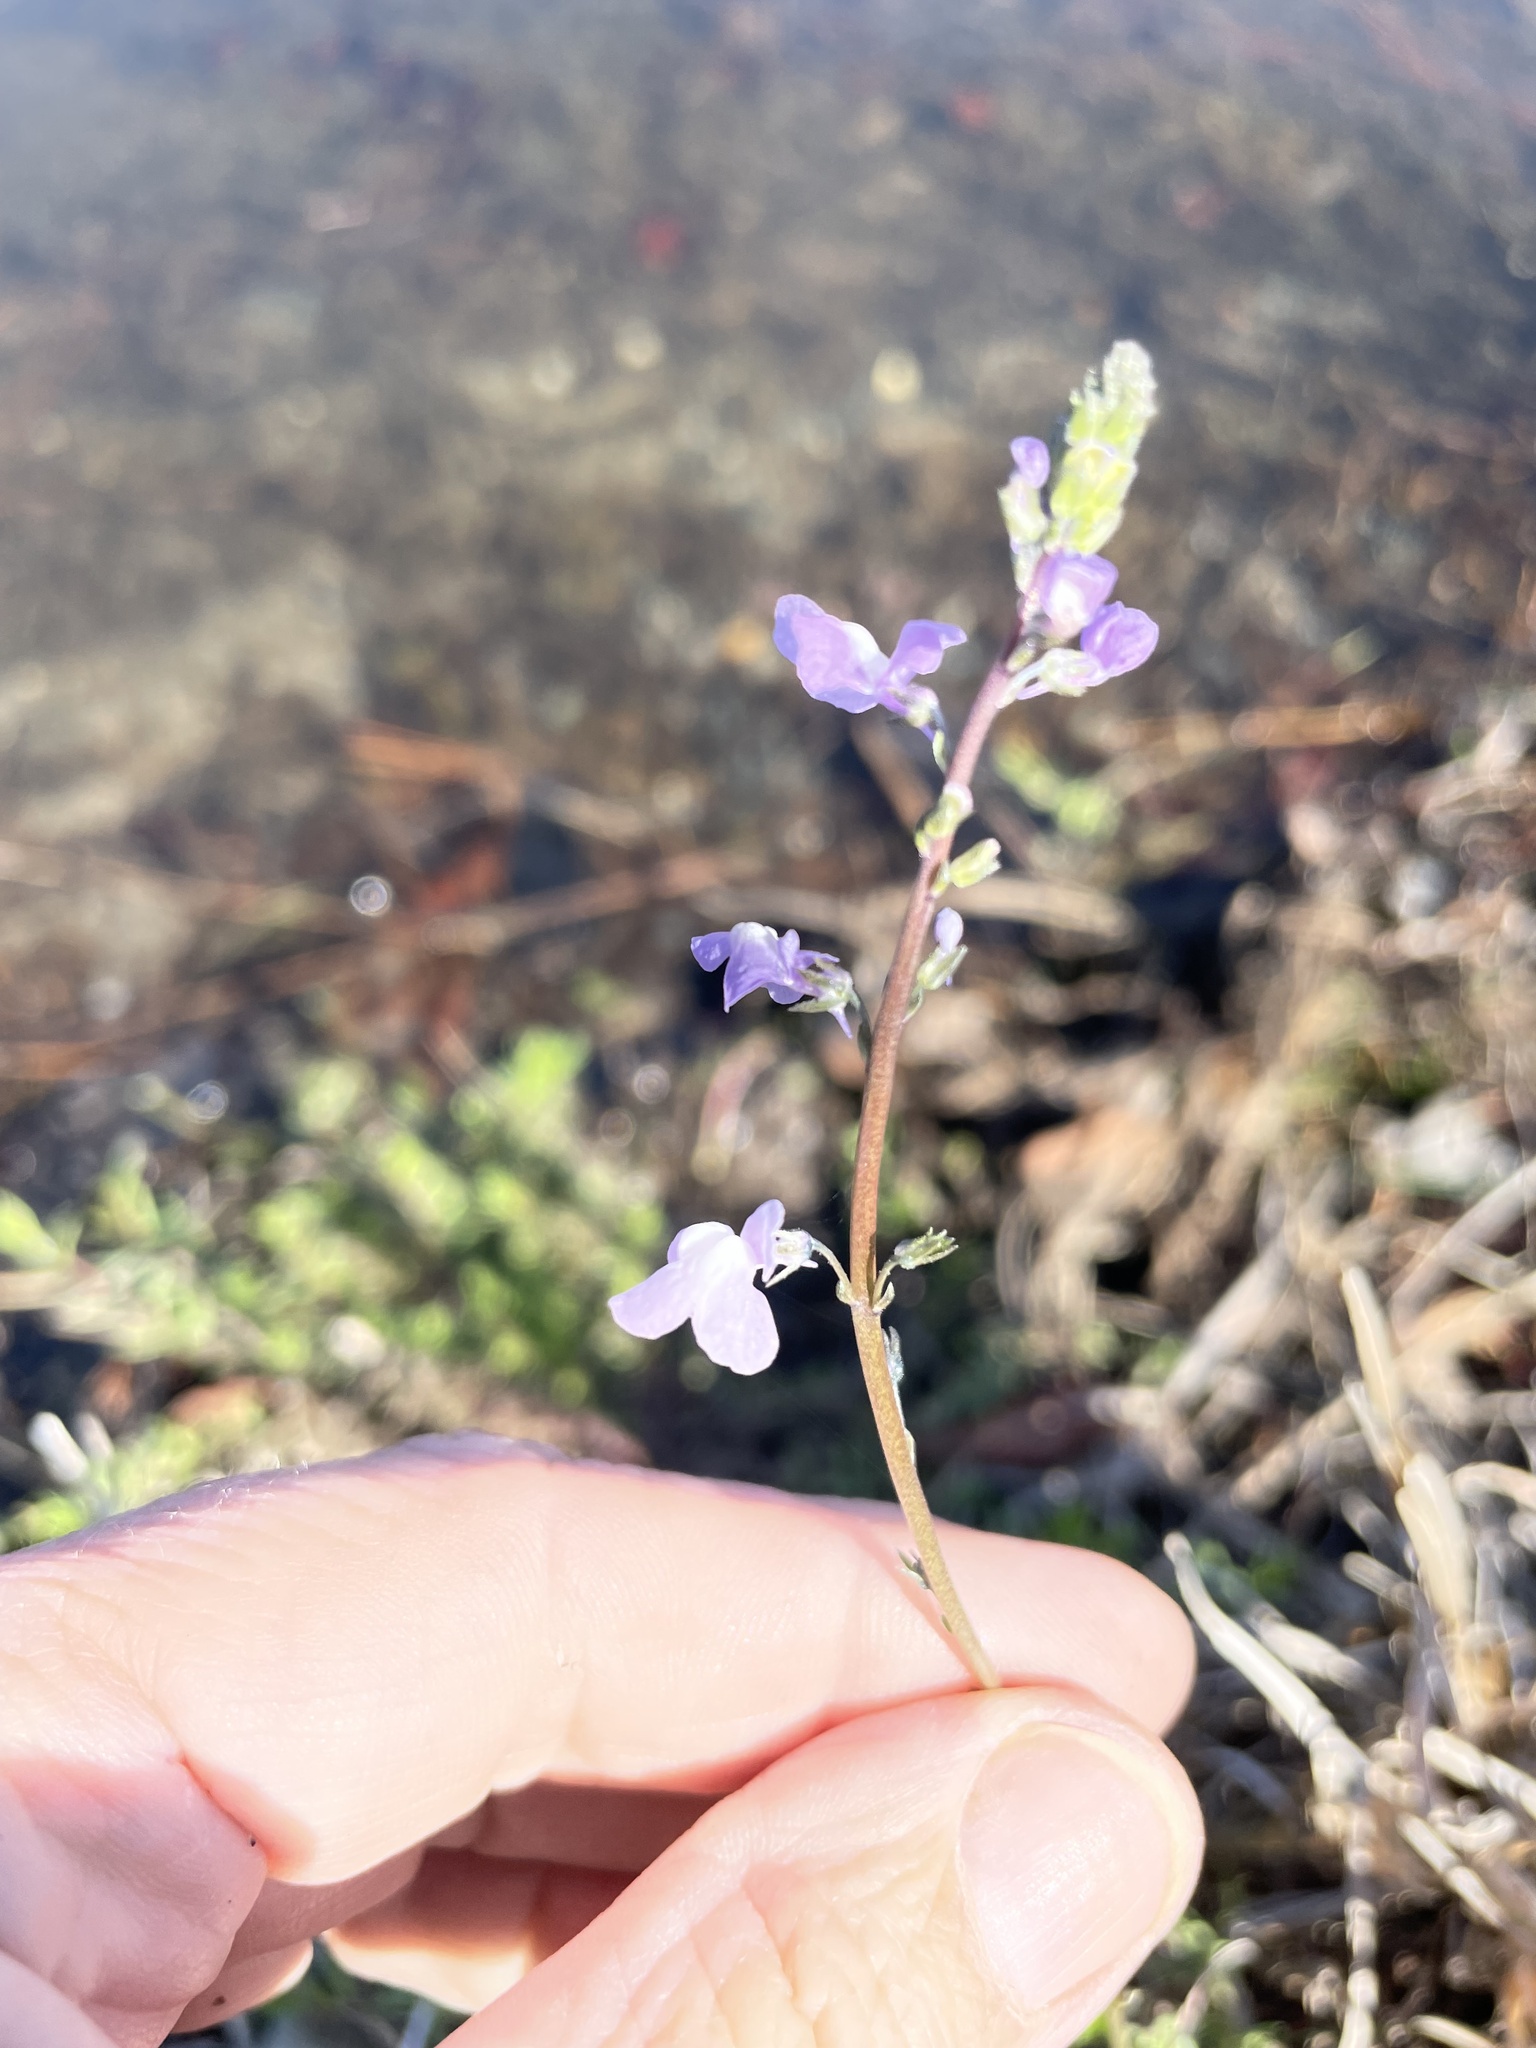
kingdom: Plantae
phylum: Tracheophyta
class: Magnoliopsida
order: Lamiales
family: Plantaginaceae
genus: Nuttallanthus
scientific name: Nuttallanthus canadensis
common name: Blue toadflax
